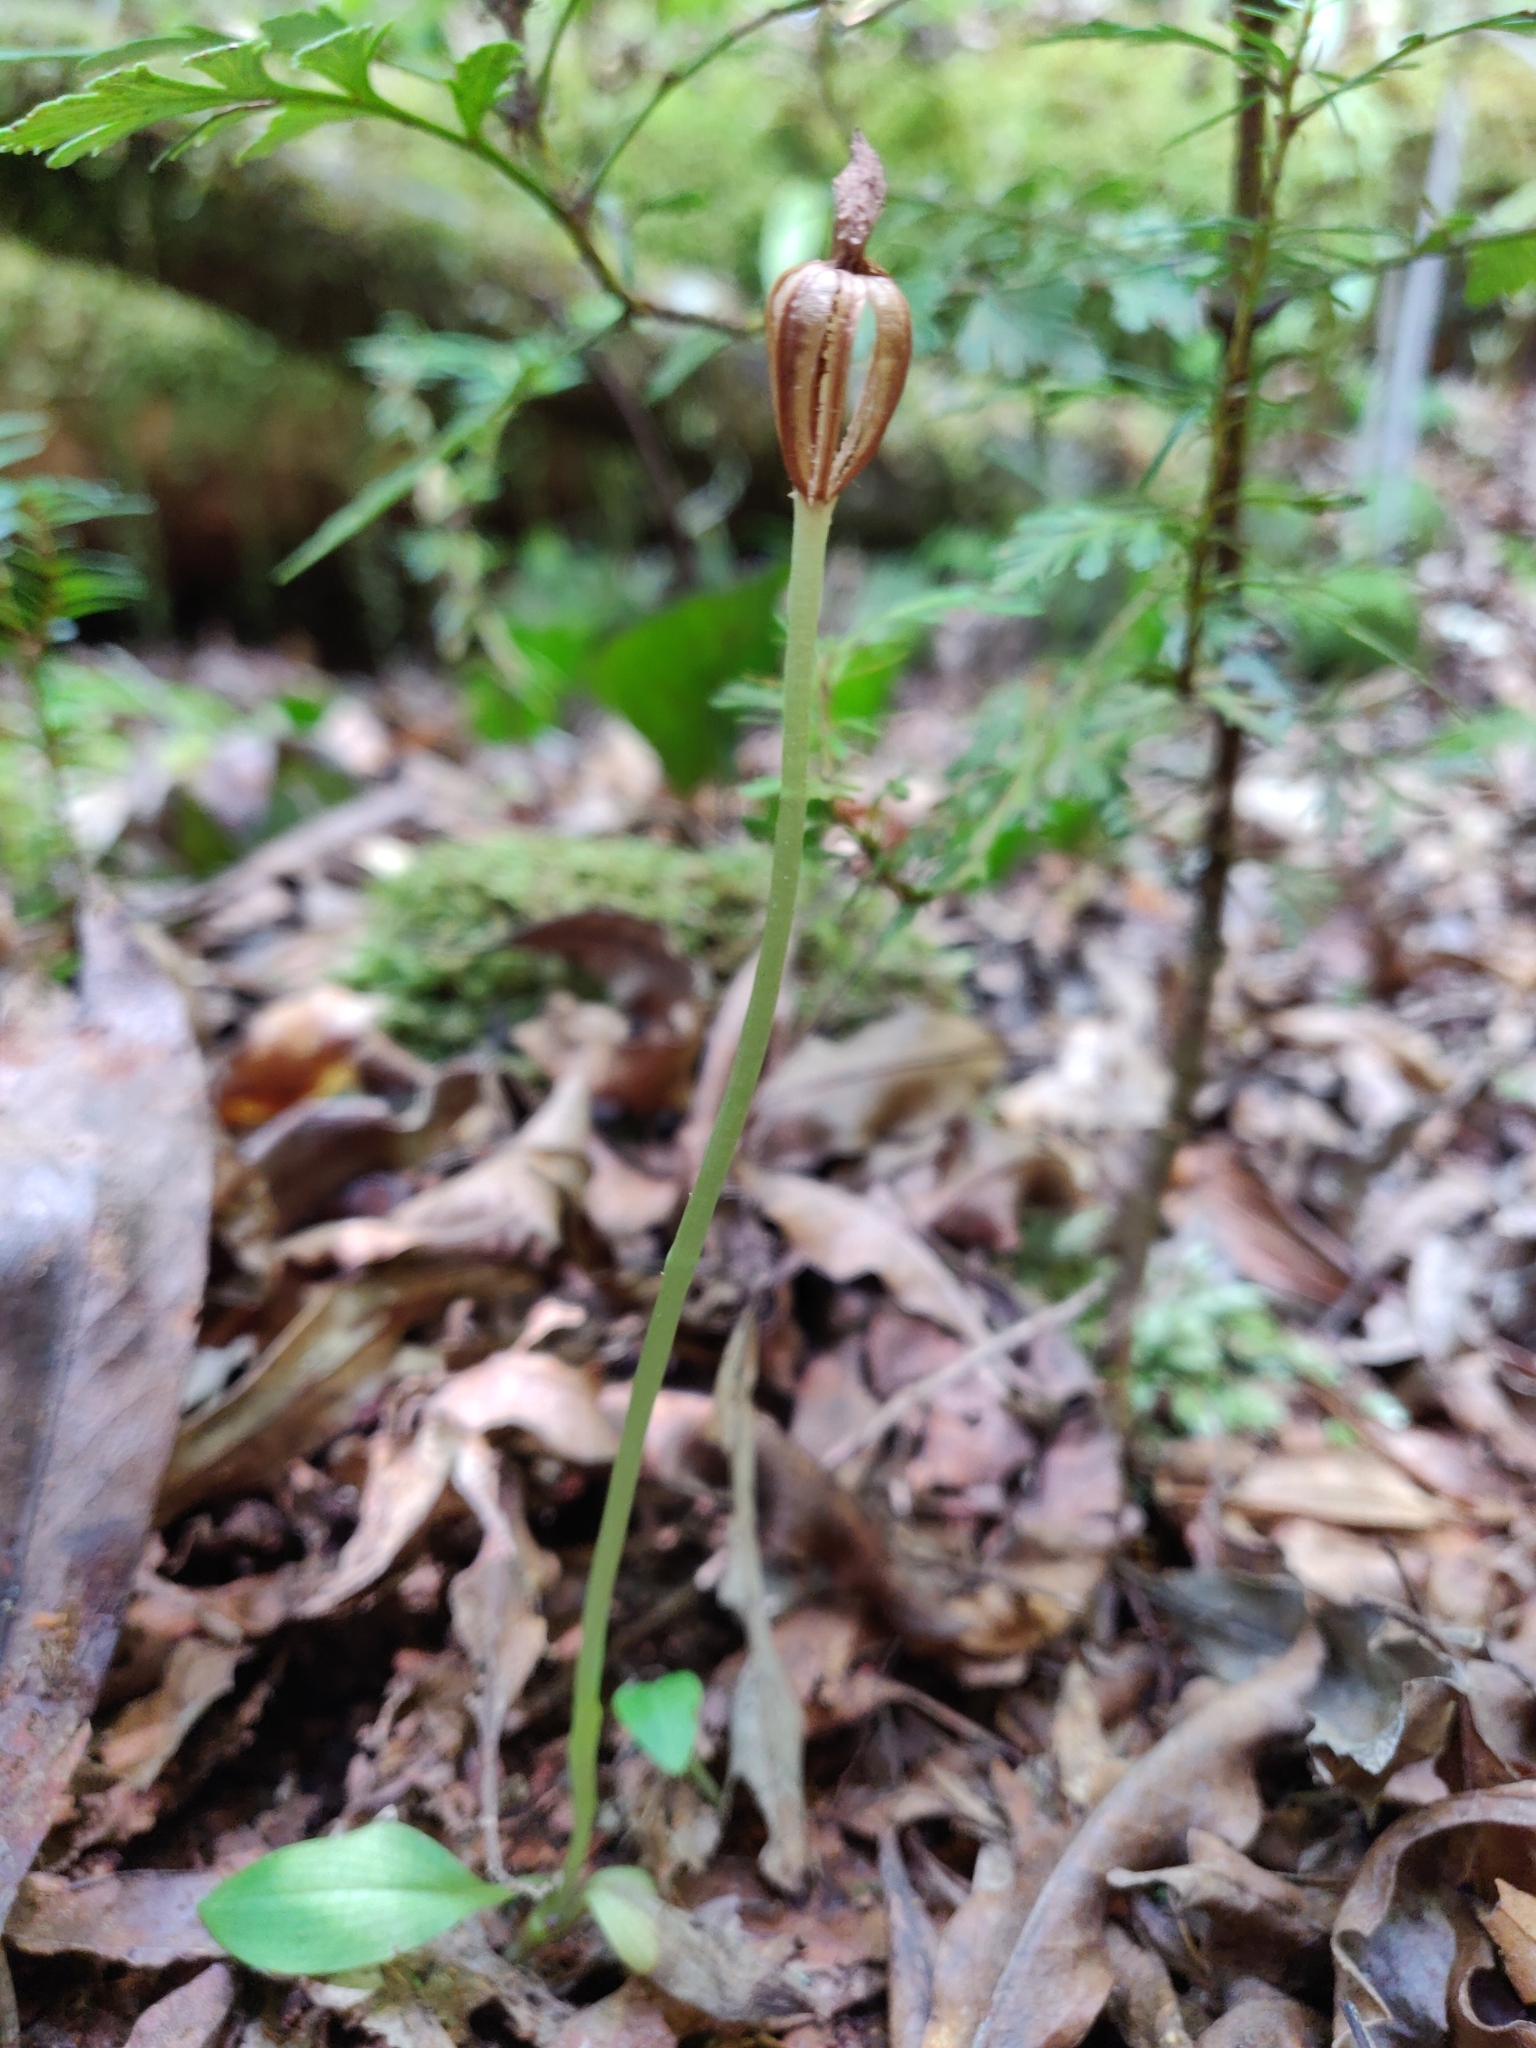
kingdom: Plantae
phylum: Tracheophyta
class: Liliopsida
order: Asparagales
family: Orchidaceae
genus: Chiloglottis
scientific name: Chiloglottis cornuta
